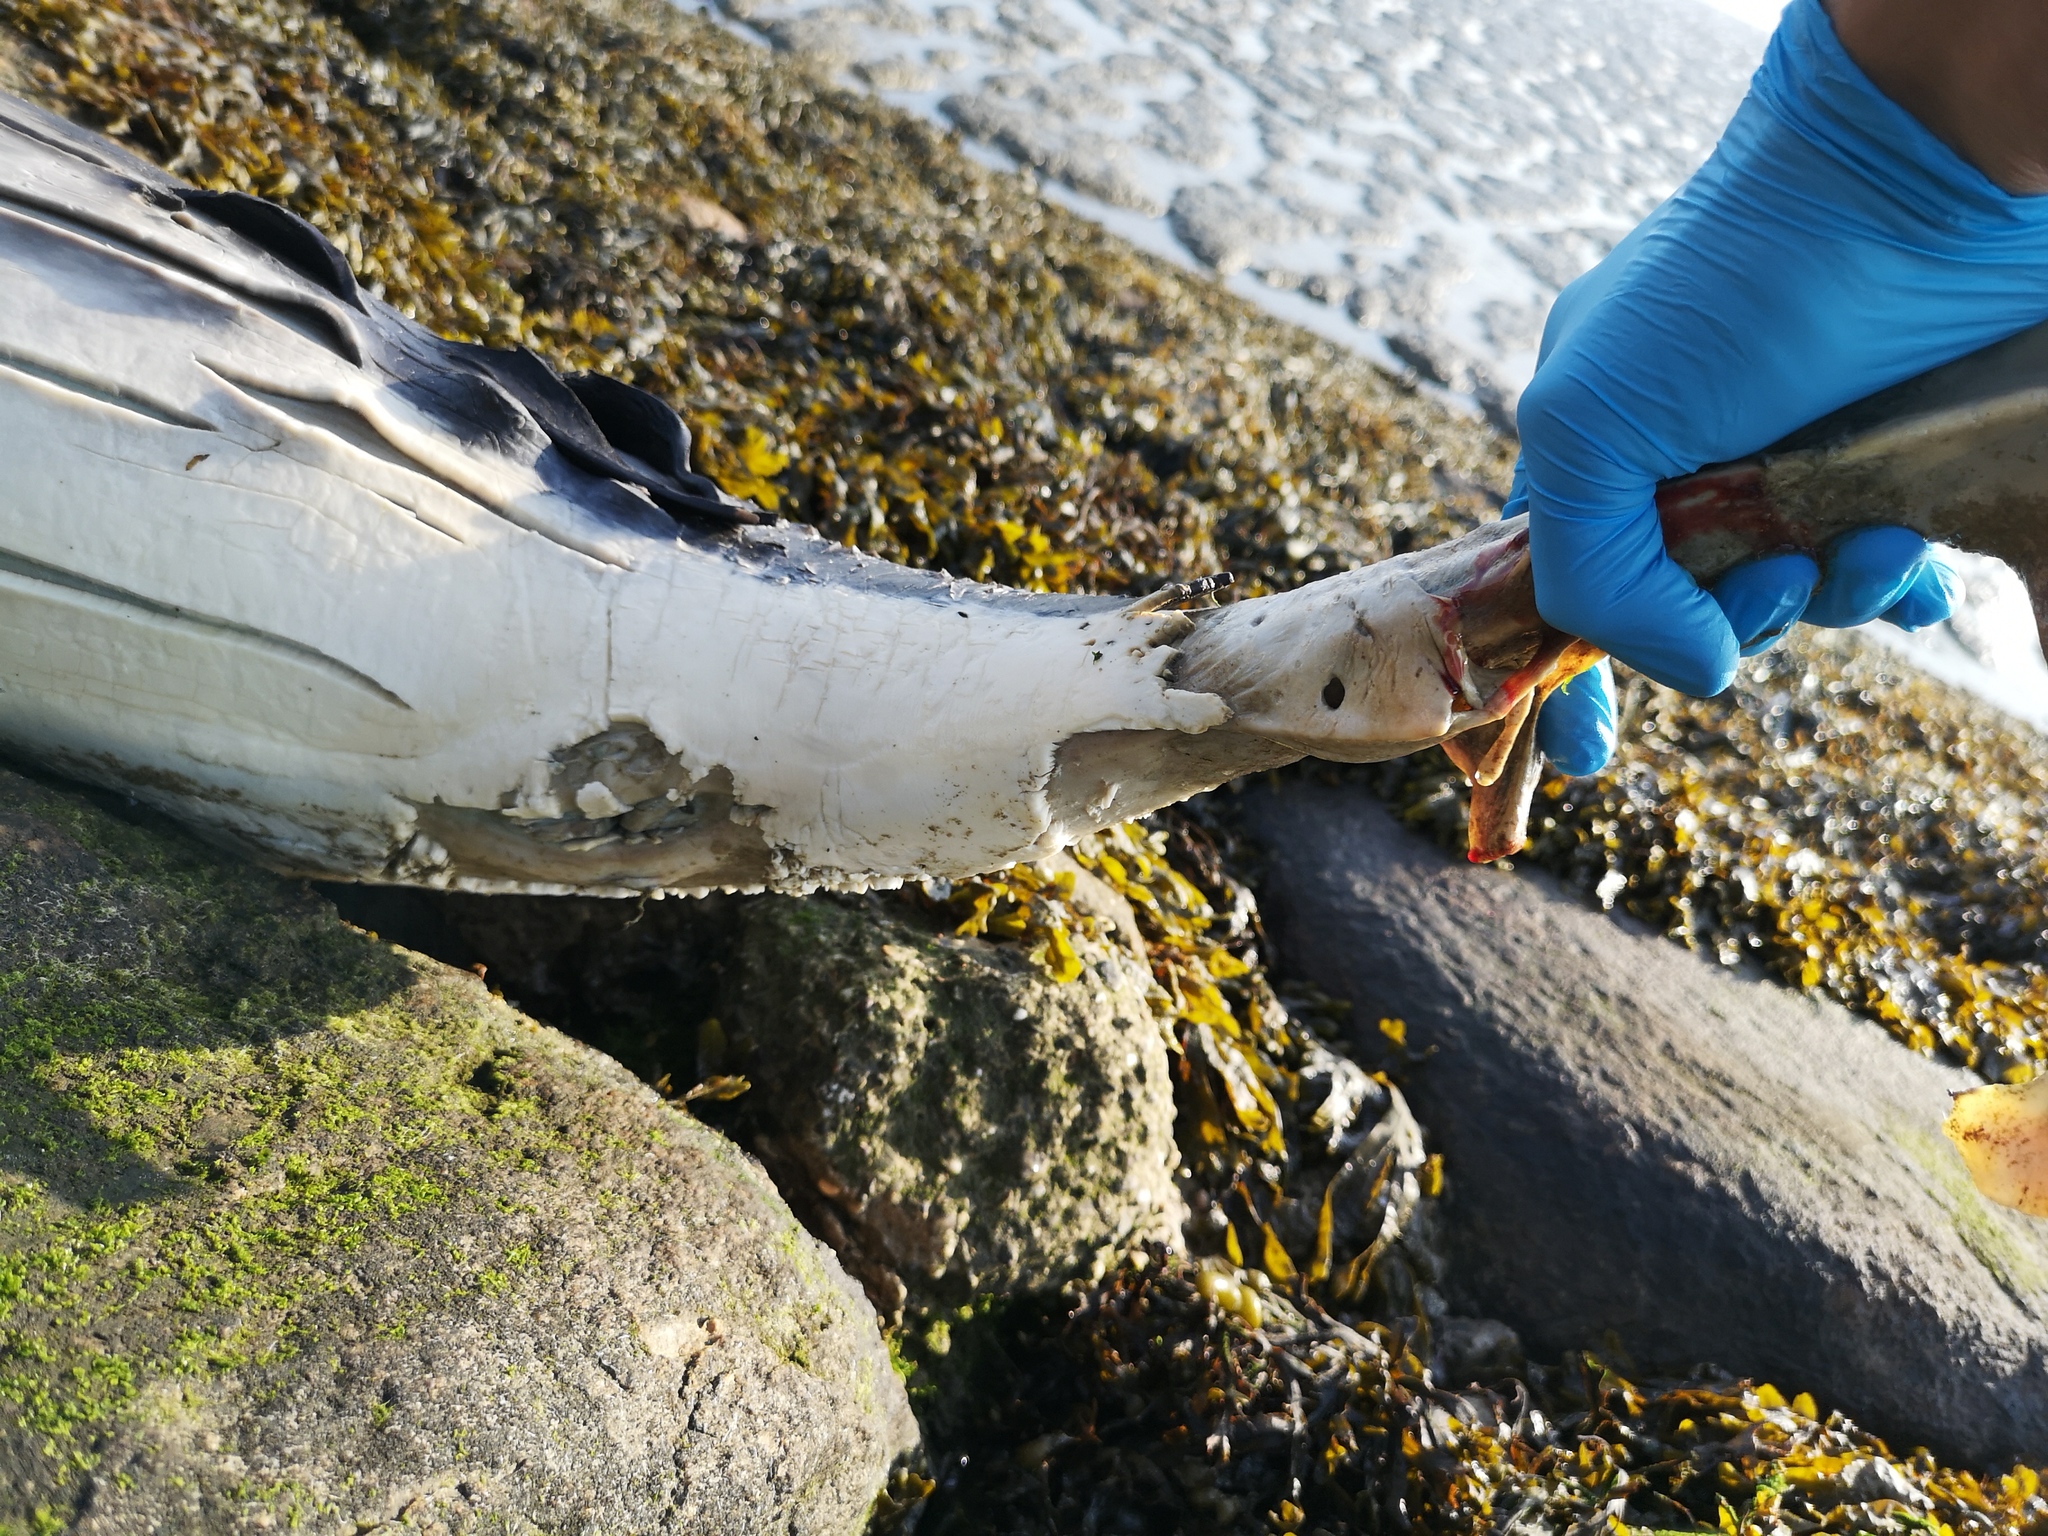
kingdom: Animalia
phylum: Chordata
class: Mammalia
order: Cetacea
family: Phocoenidae
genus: Phocoena
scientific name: Phocoena phocoena
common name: Harbor porpoise
